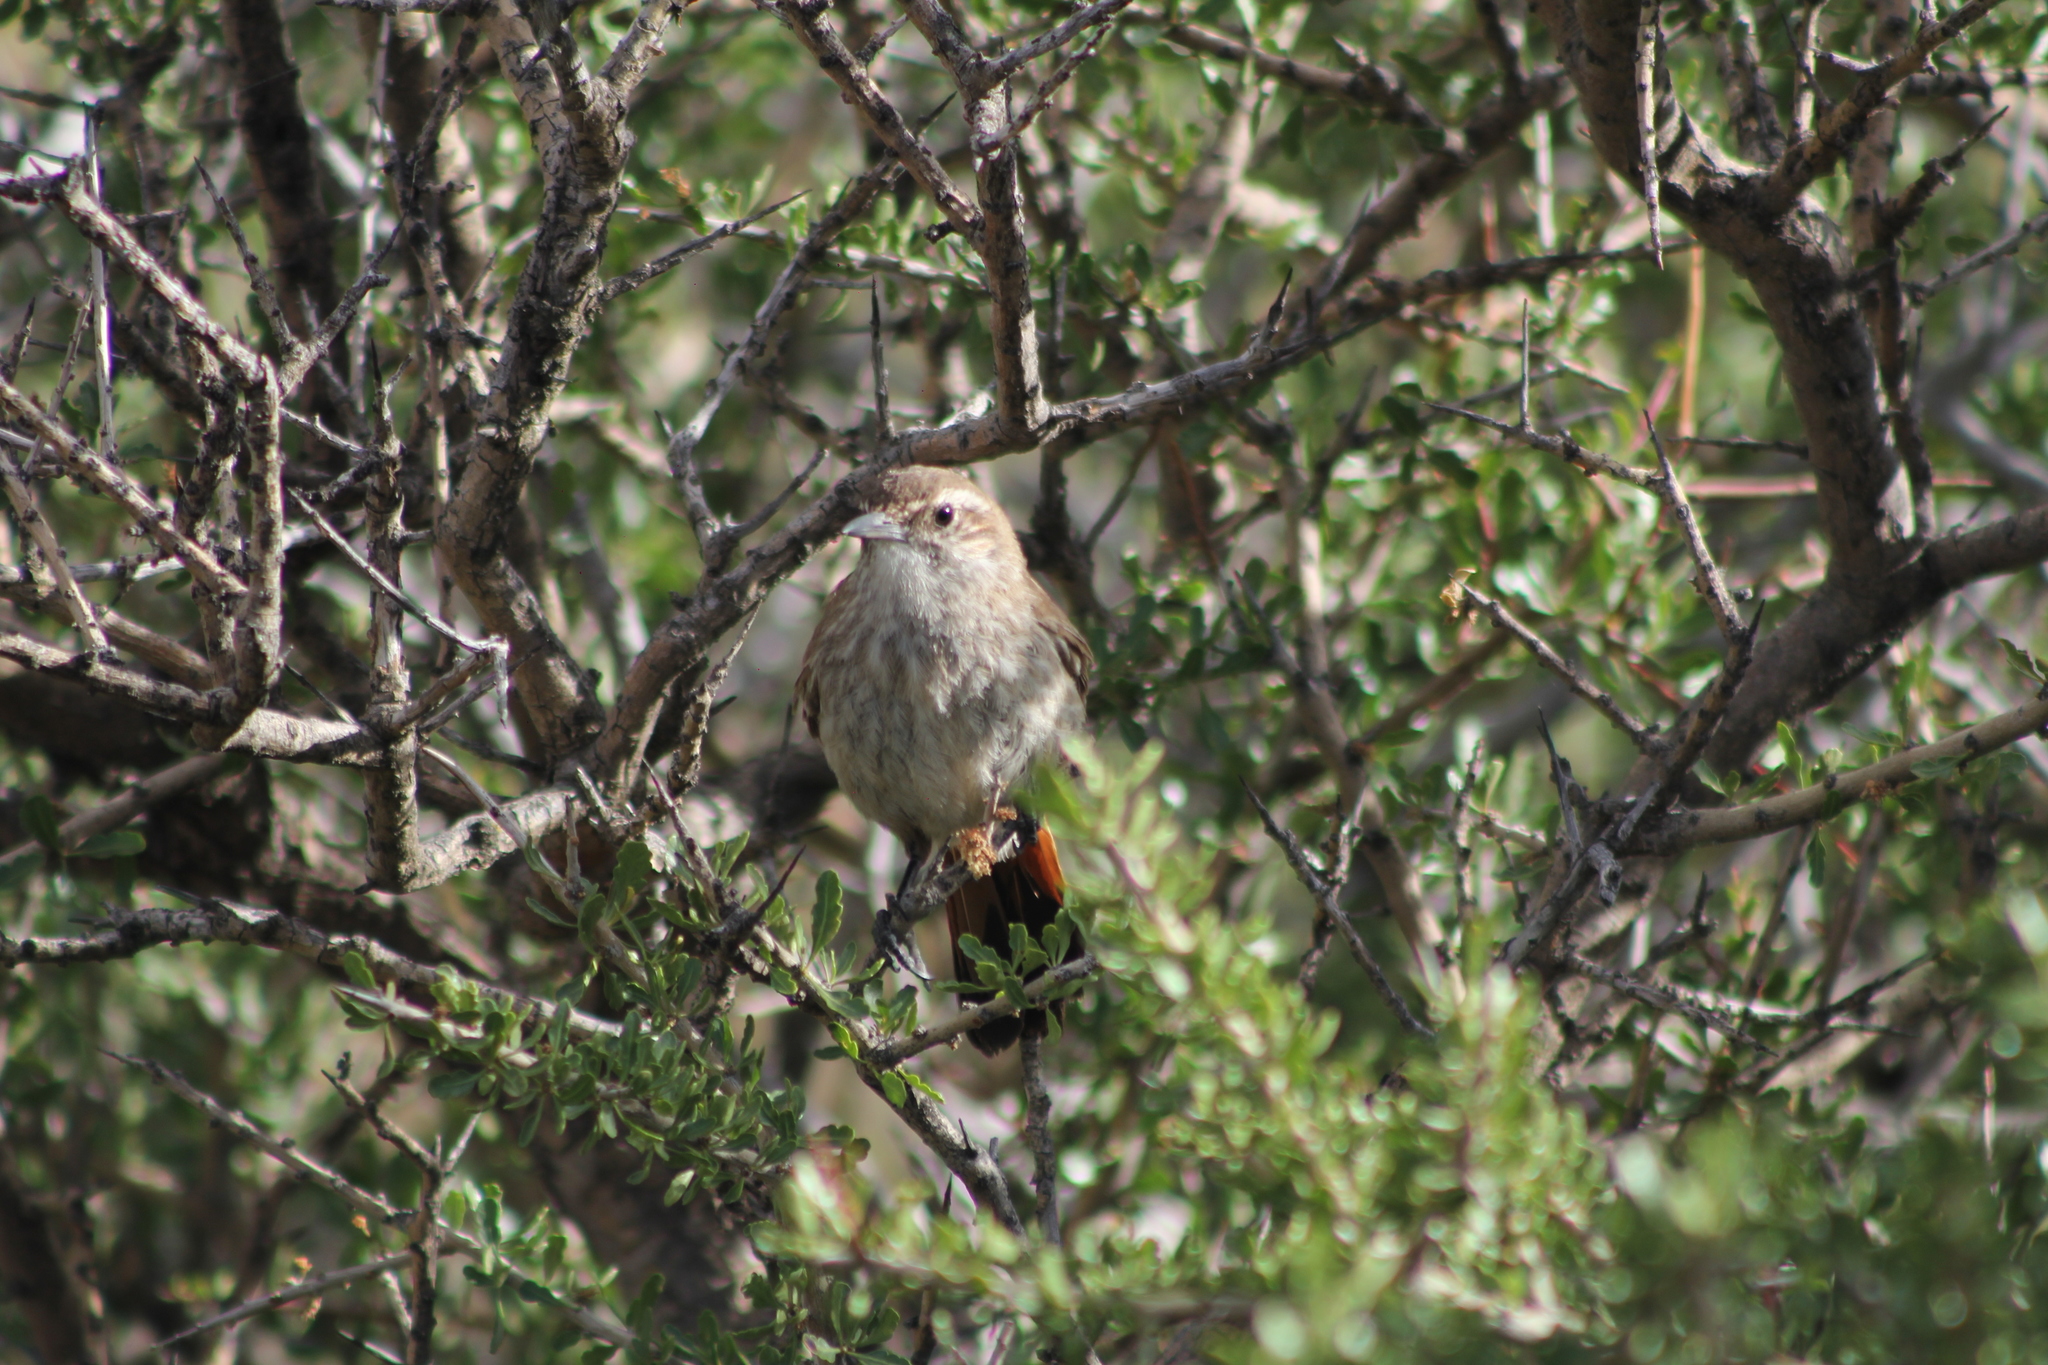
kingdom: Animalia
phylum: Chordata
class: Aves
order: Passeriformes
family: Furnariidae
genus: Eremobius
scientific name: Eremobius phoenicurus
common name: Band-tailed eremobius
